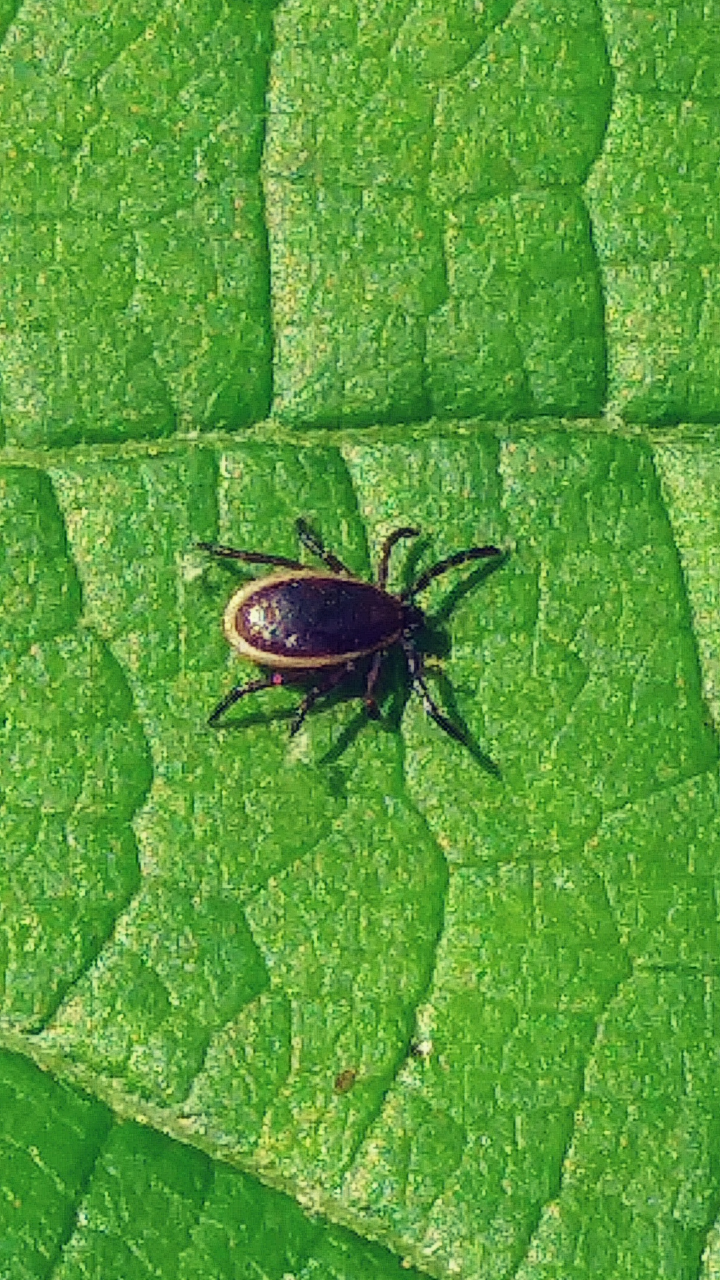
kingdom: Animalia
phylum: Arthropoda
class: Arachnida
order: Ixodida
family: Ixodidae
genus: Ixodes
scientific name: Ixodes scapularis
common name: Black legged tick
